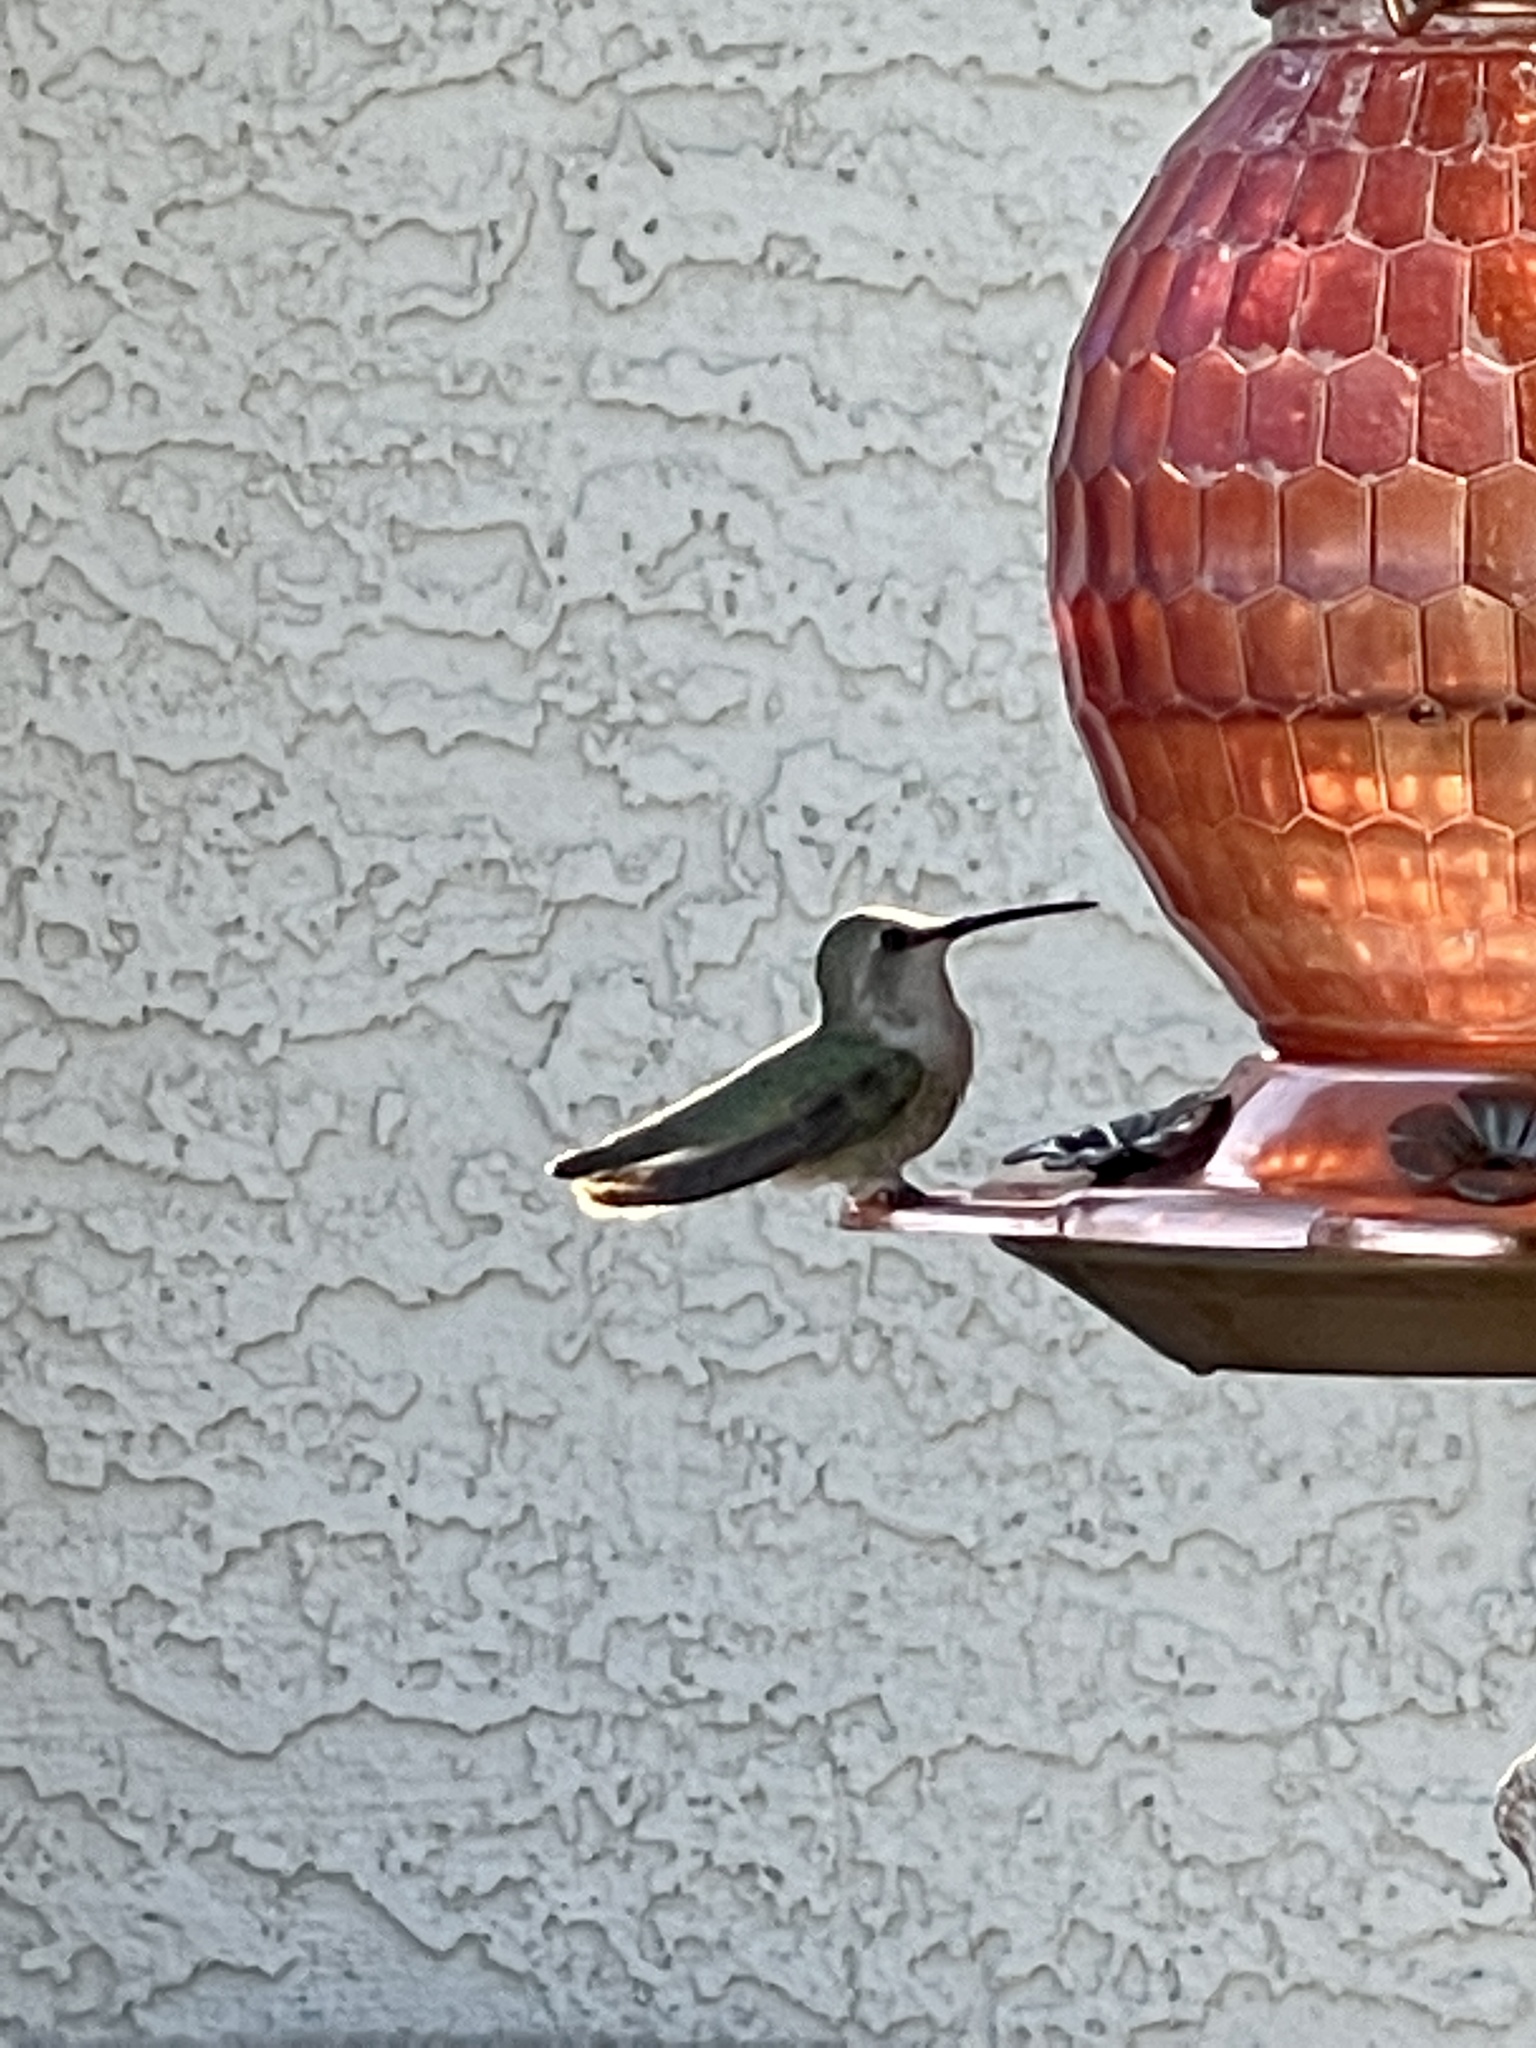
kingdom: Animalia
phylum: Chordata
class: Aves
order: Apodiformes
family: Trochilidae
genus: Calypte
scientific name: Calypte costae
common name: Costa's hummingbird
